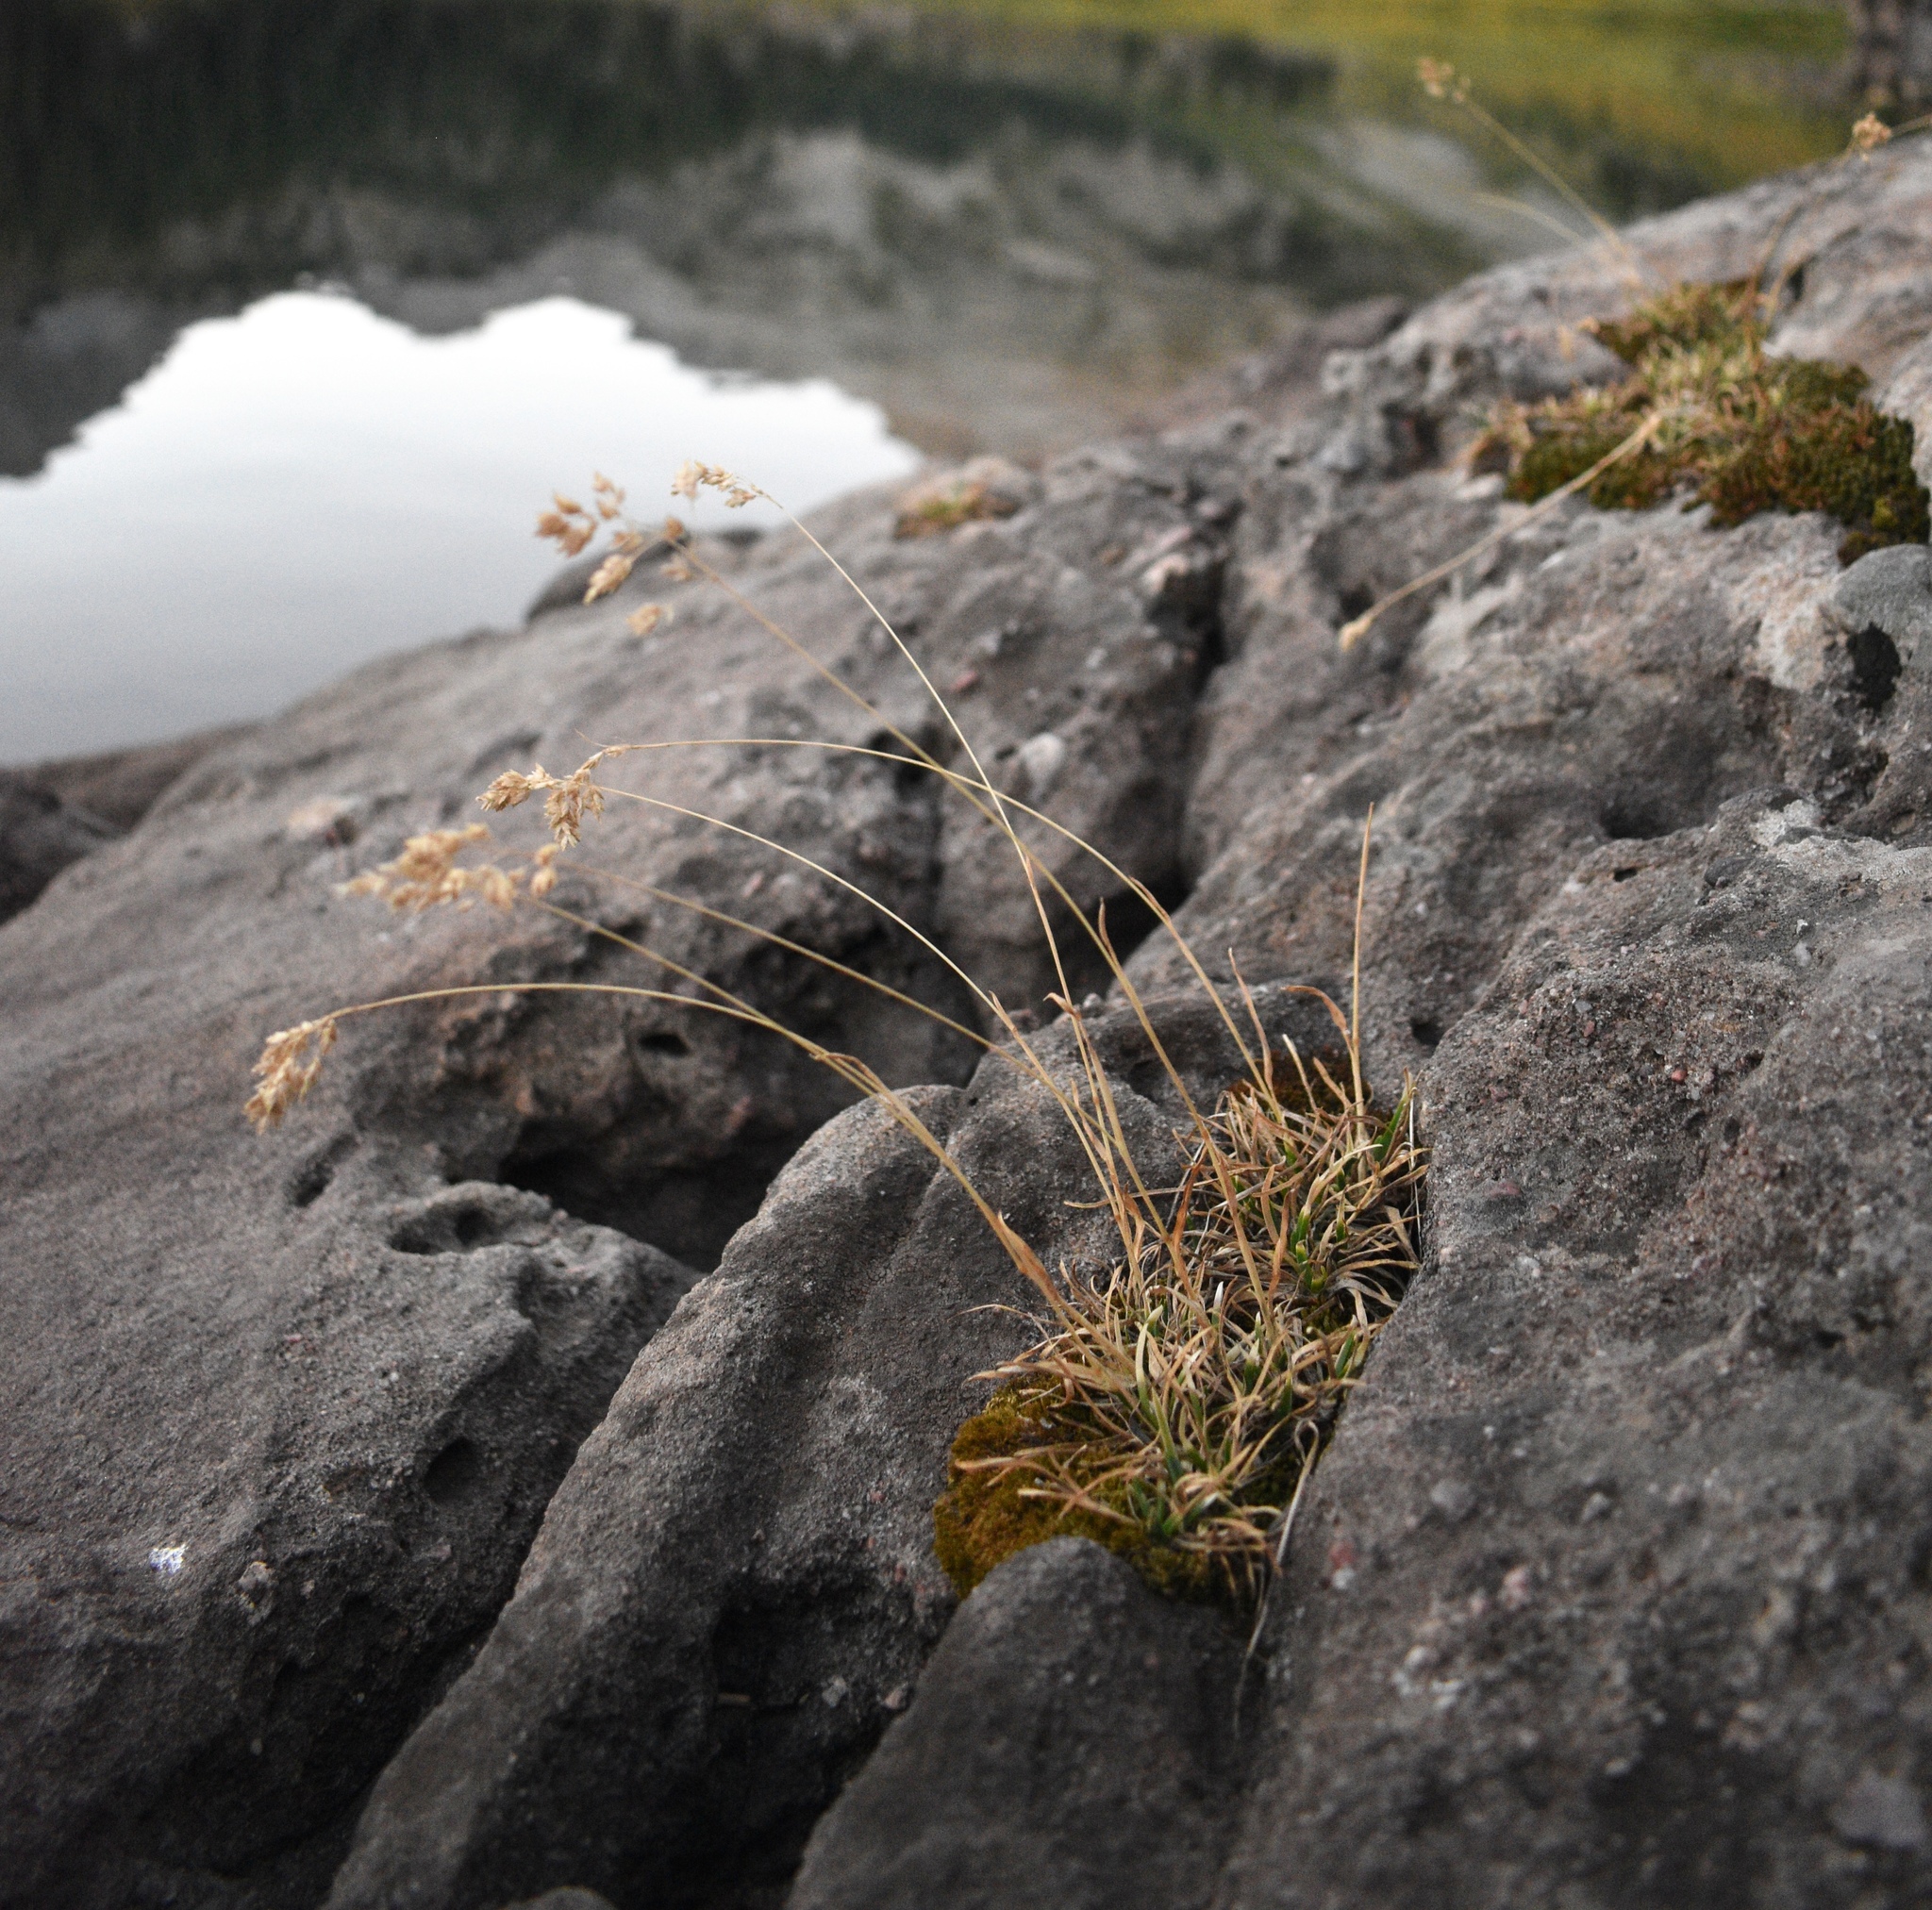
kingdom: Plantae
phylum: Tracheophyta
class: Liliopsida
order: Poales
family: Poaceae
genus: Poa
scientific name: Poa alpina
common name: Alpine bluegrass
